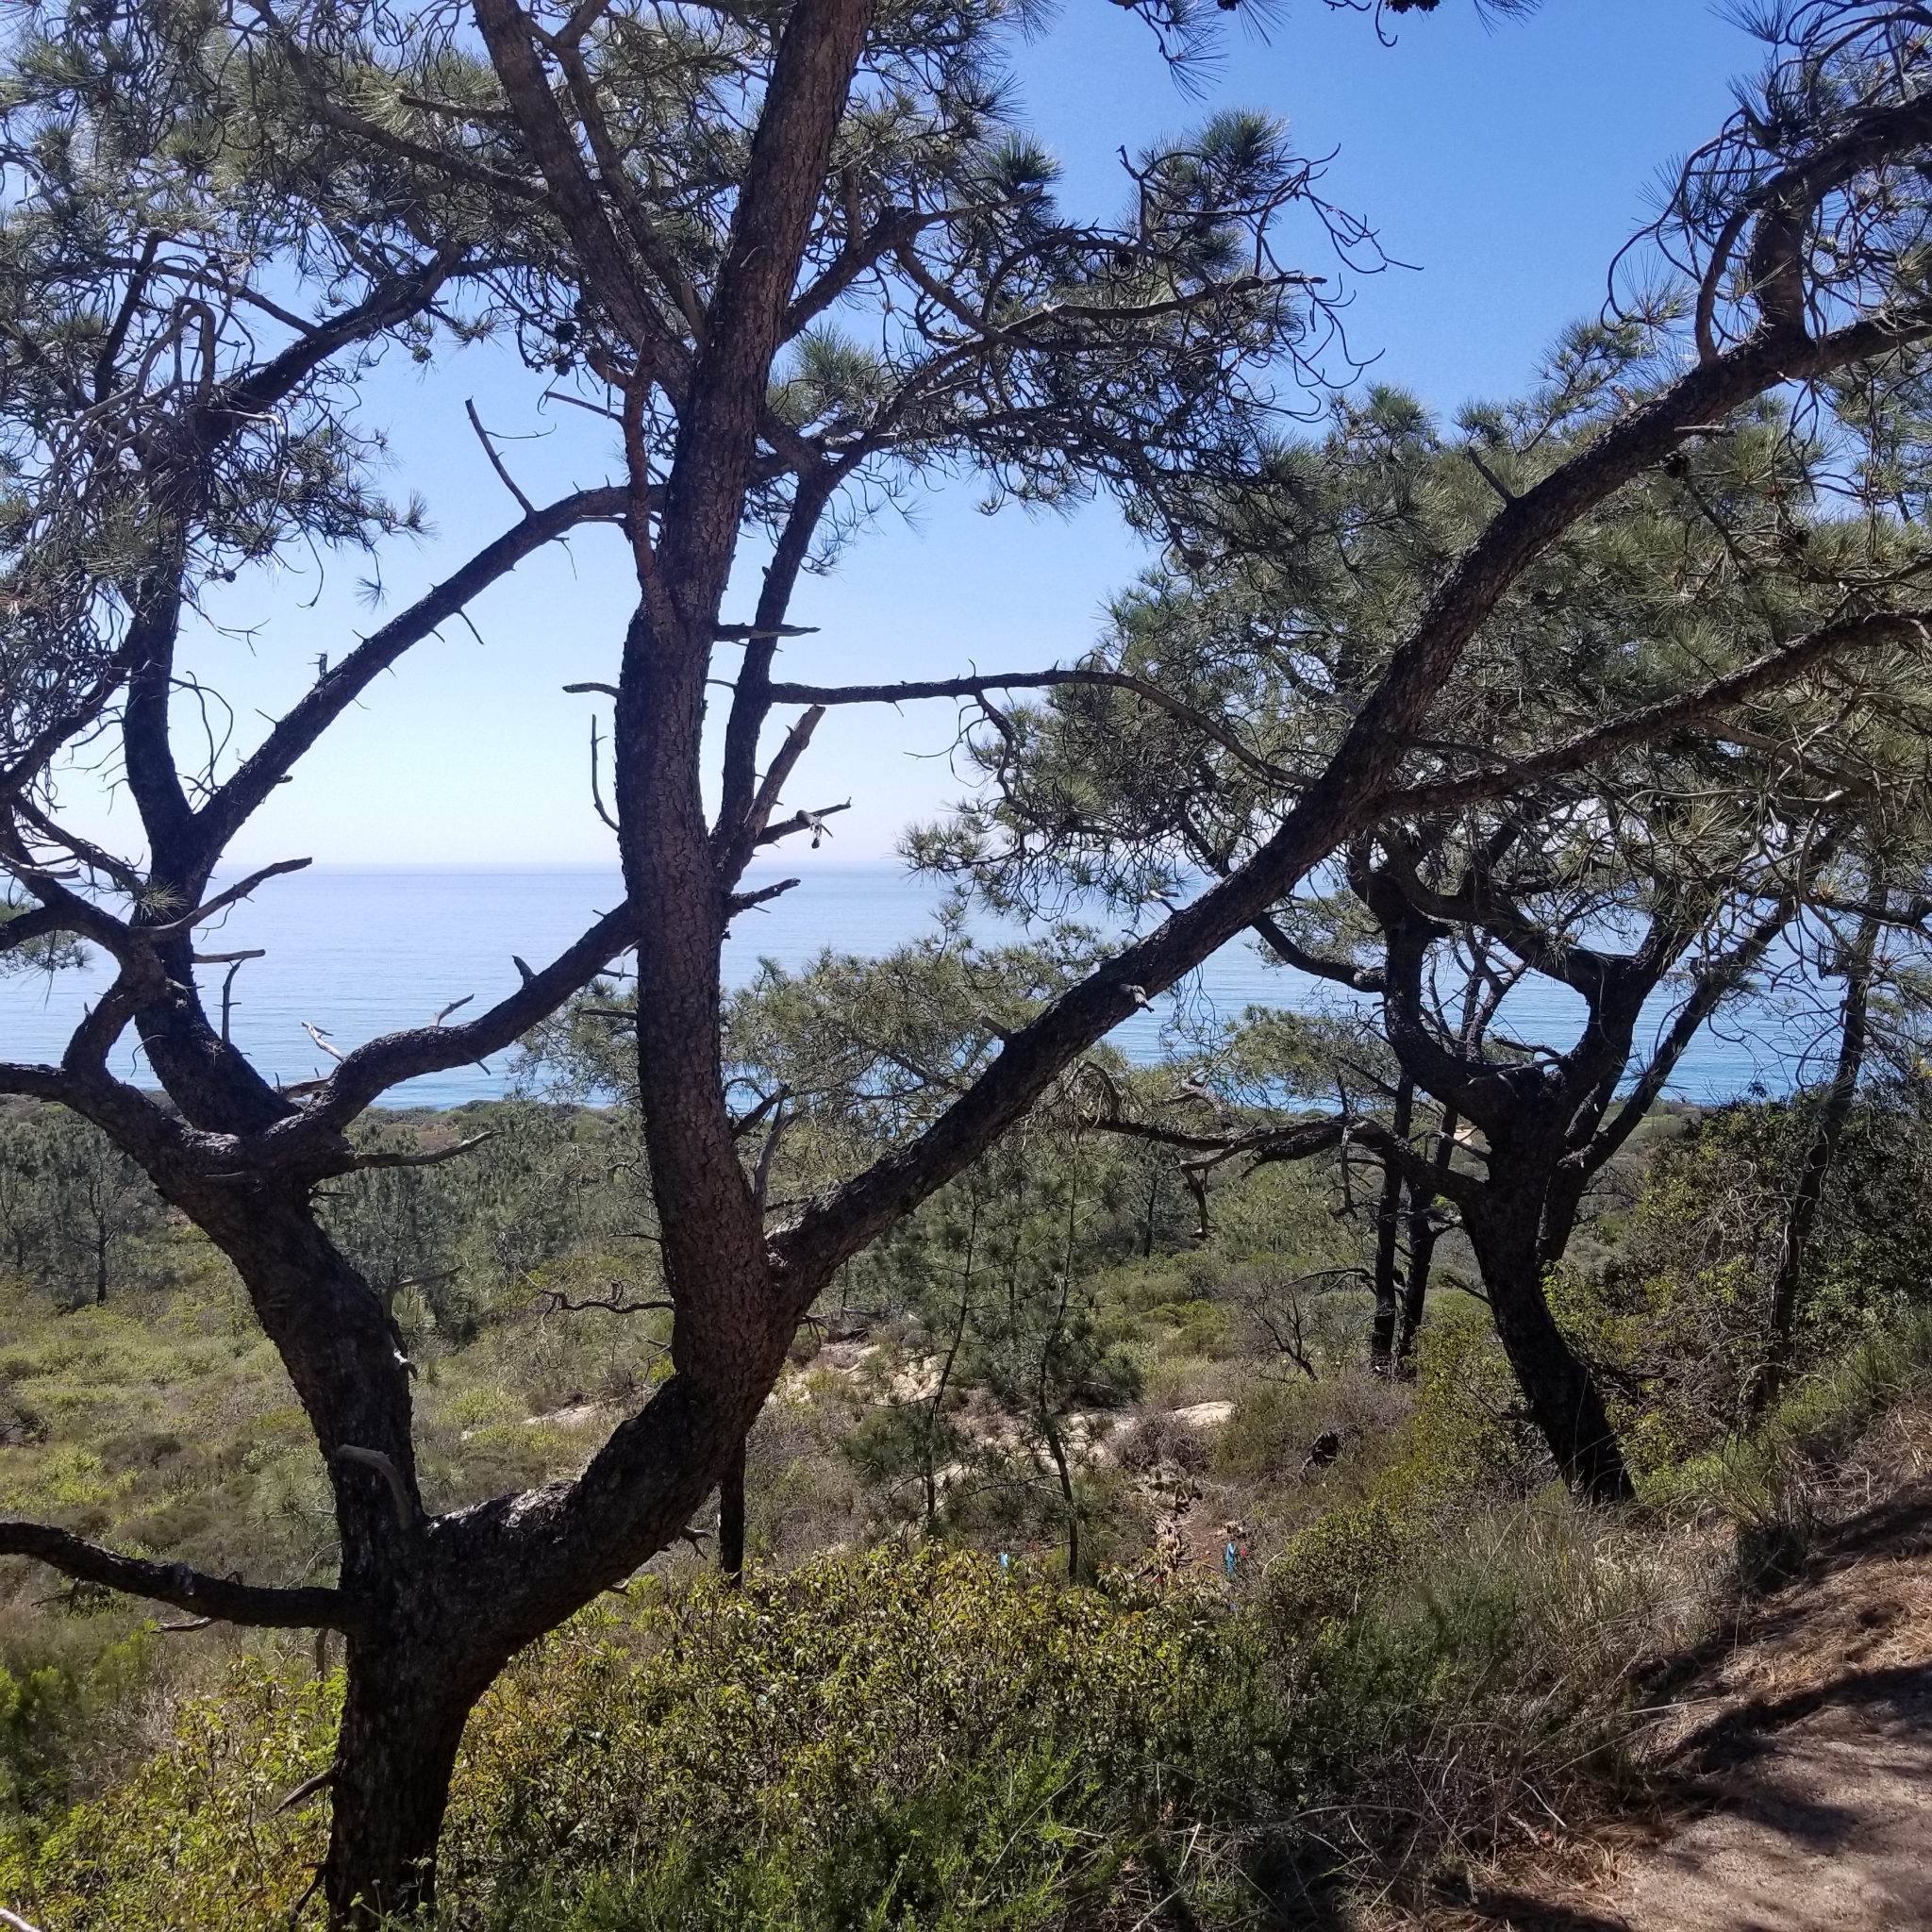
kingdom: Plantae
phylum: Tracheophyta
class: Pinopsida
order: Pinales
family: Pinaceae
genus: Pinus
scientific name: Pinus torreyana
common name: Torrey pine
